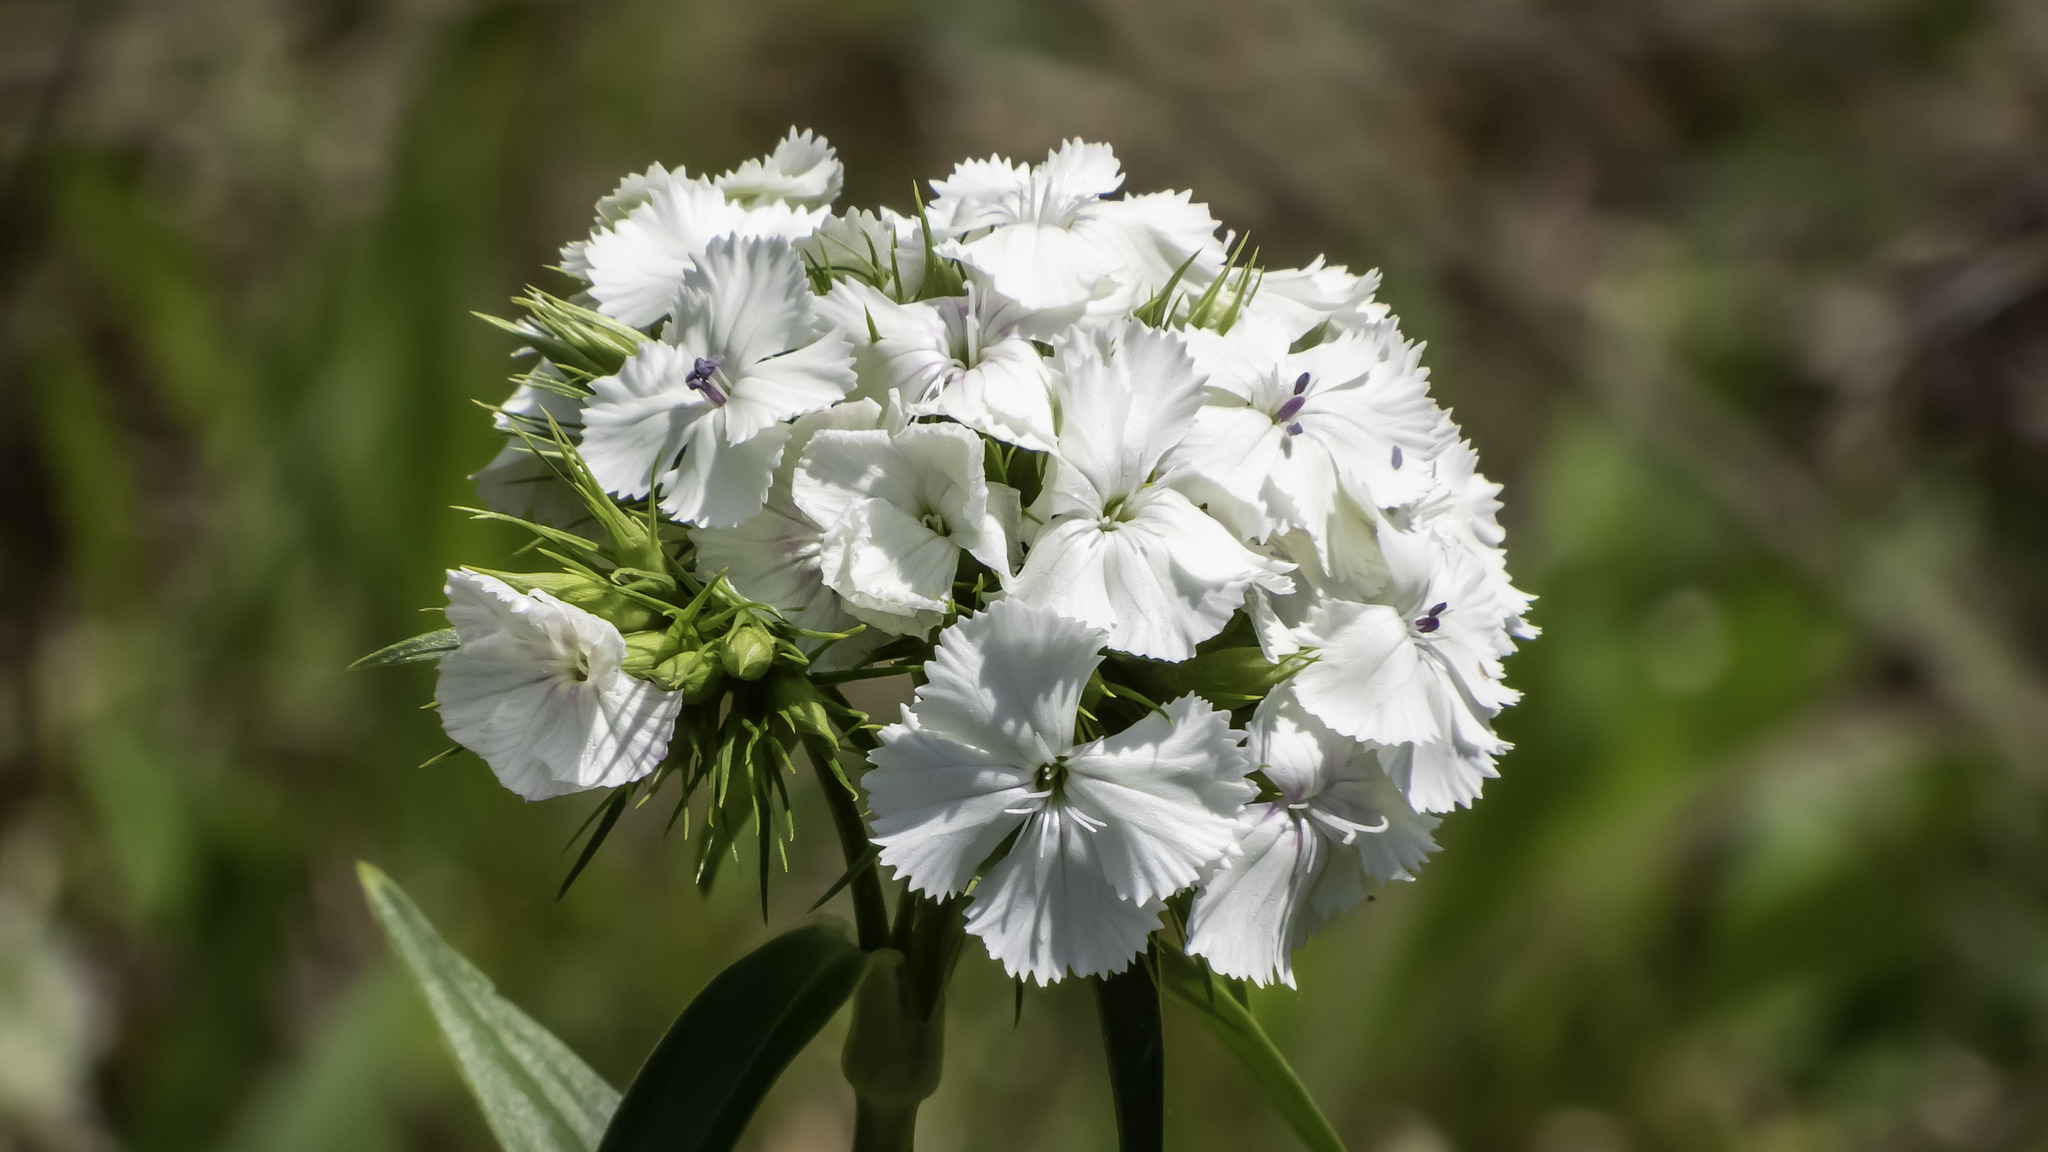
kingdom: Plantae
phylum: Tracheophyta
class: Magnoliopsida
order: Caryophyllales
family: Caryophyllaceae
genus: Dianthus
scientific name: Dianthus barbatus
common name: Sweet-william
